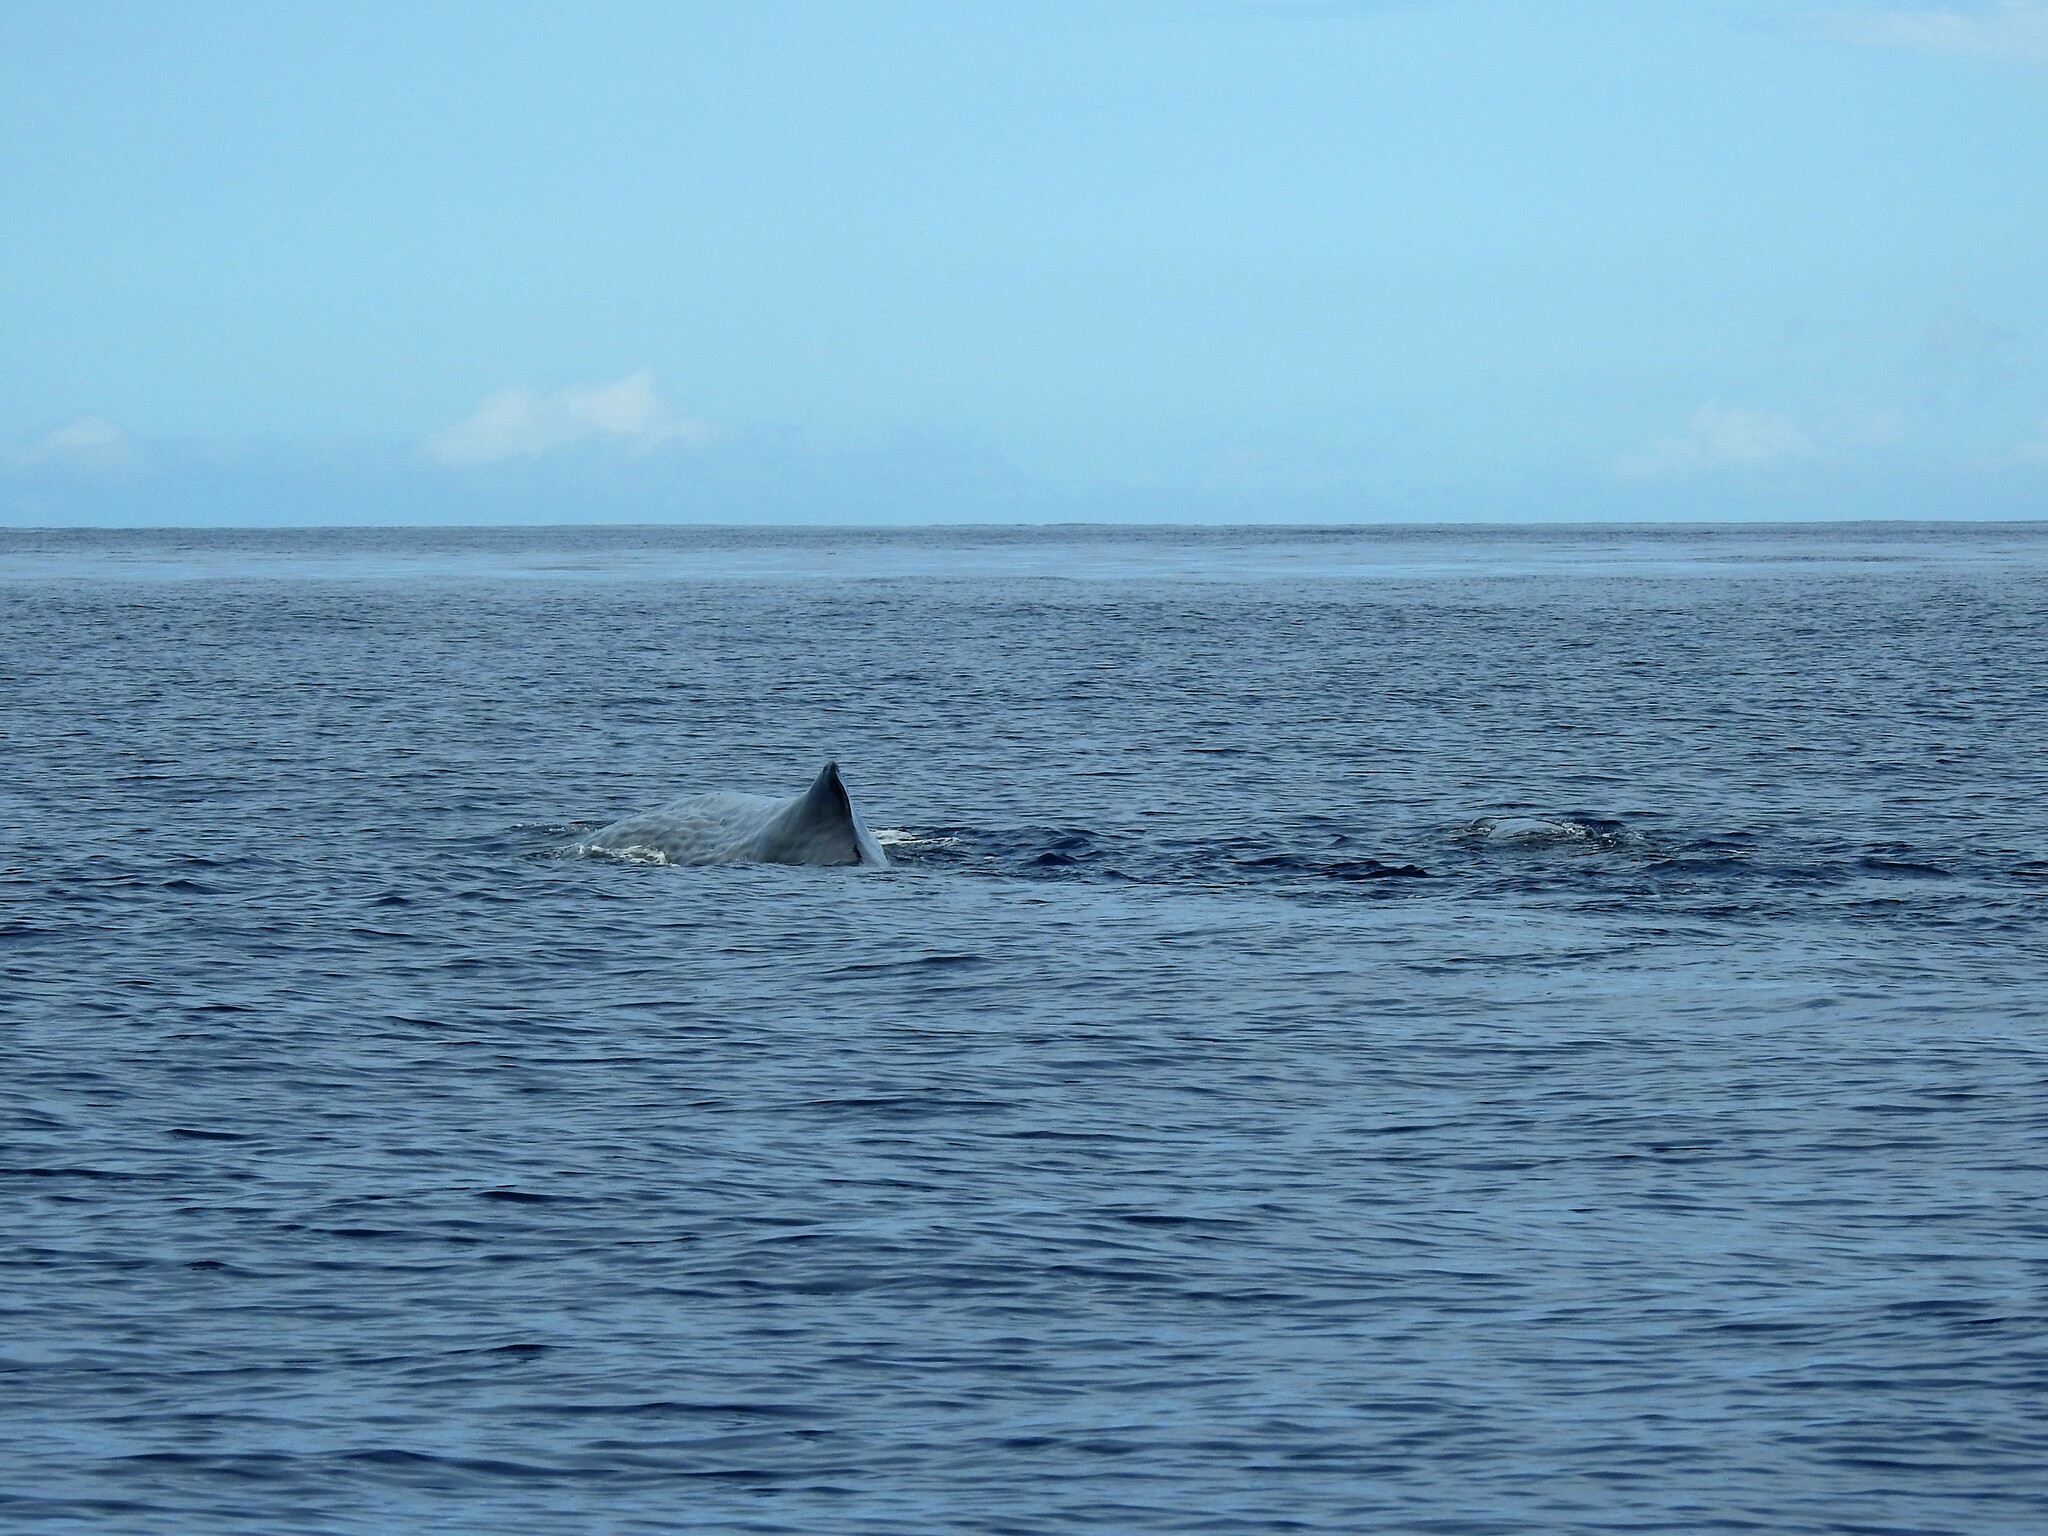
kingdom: Animalia
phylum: Chordata
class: Mammalia
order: Cetacea
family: Physeteridae
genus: Physeter
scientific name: Physeter macrocephalus
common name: Sperm whale
